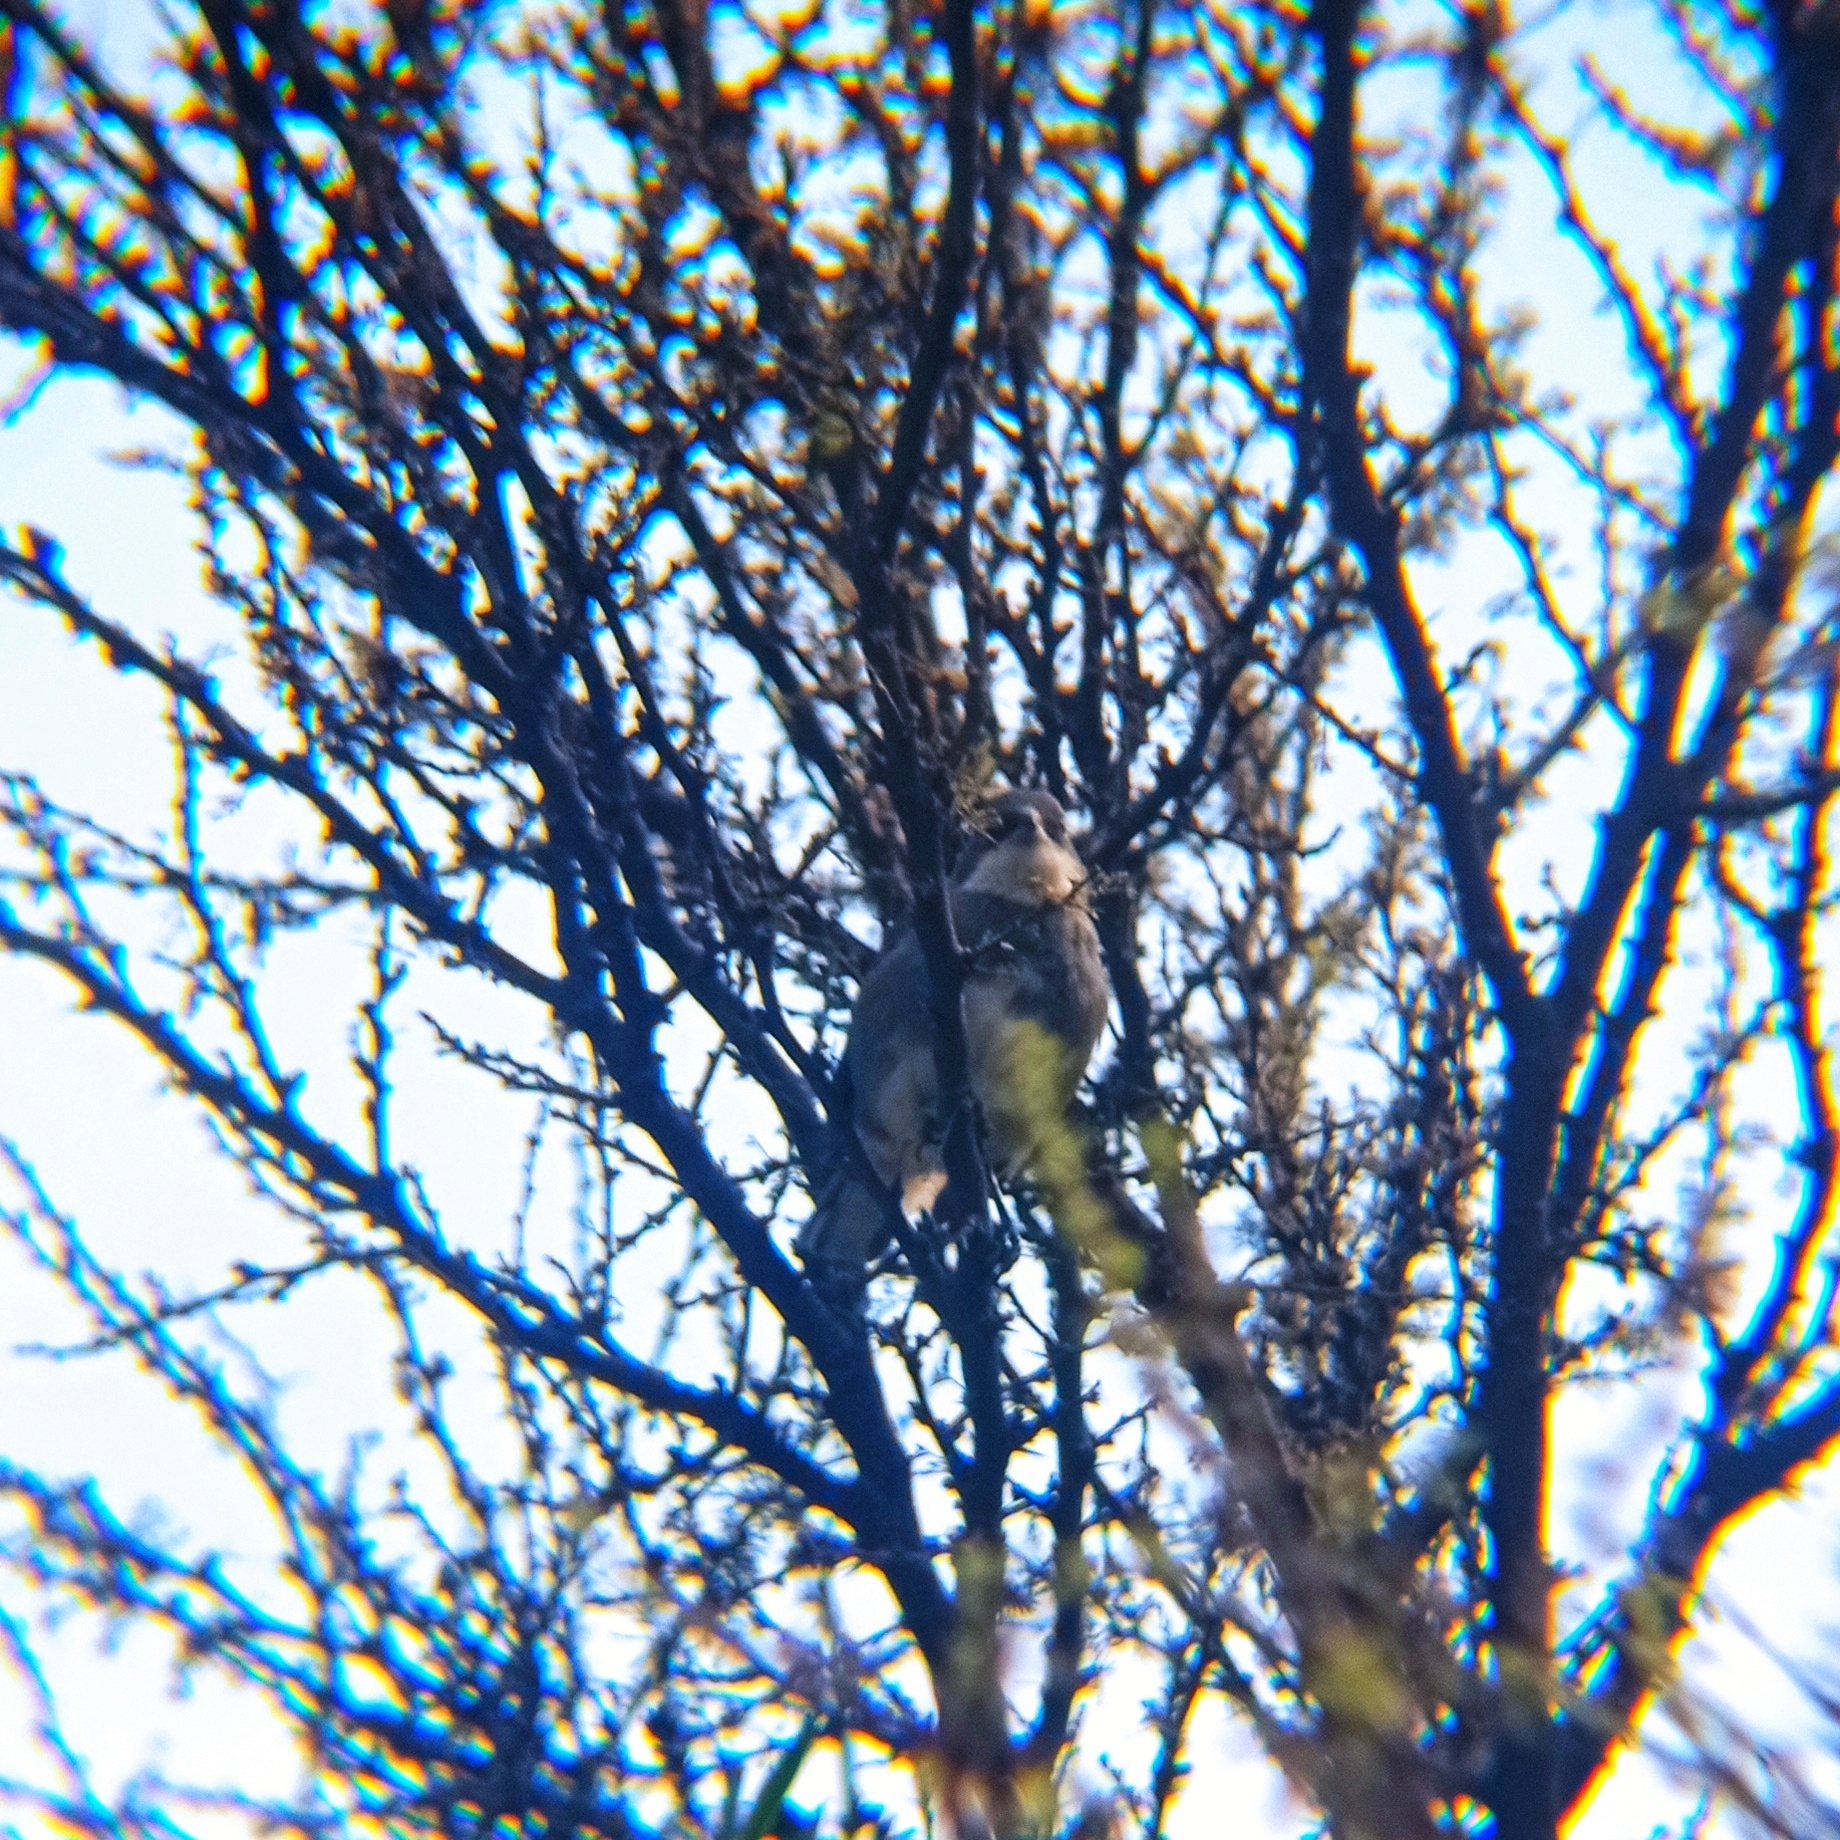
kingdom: Animalia
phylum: Chordata
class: Aves
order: Passeriformes
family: Thraupidae
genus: Diuca
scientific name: Diuca diuca
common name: Common diuca finch
